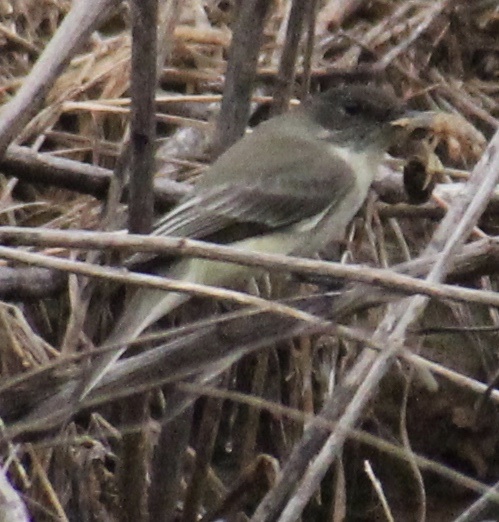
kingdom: Animalia
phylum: Chordata
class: Aves
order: Passeriformes
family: Tyrannidae
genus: Sayornis
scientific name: Sayornis phoebe
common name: Eastern phoebe
